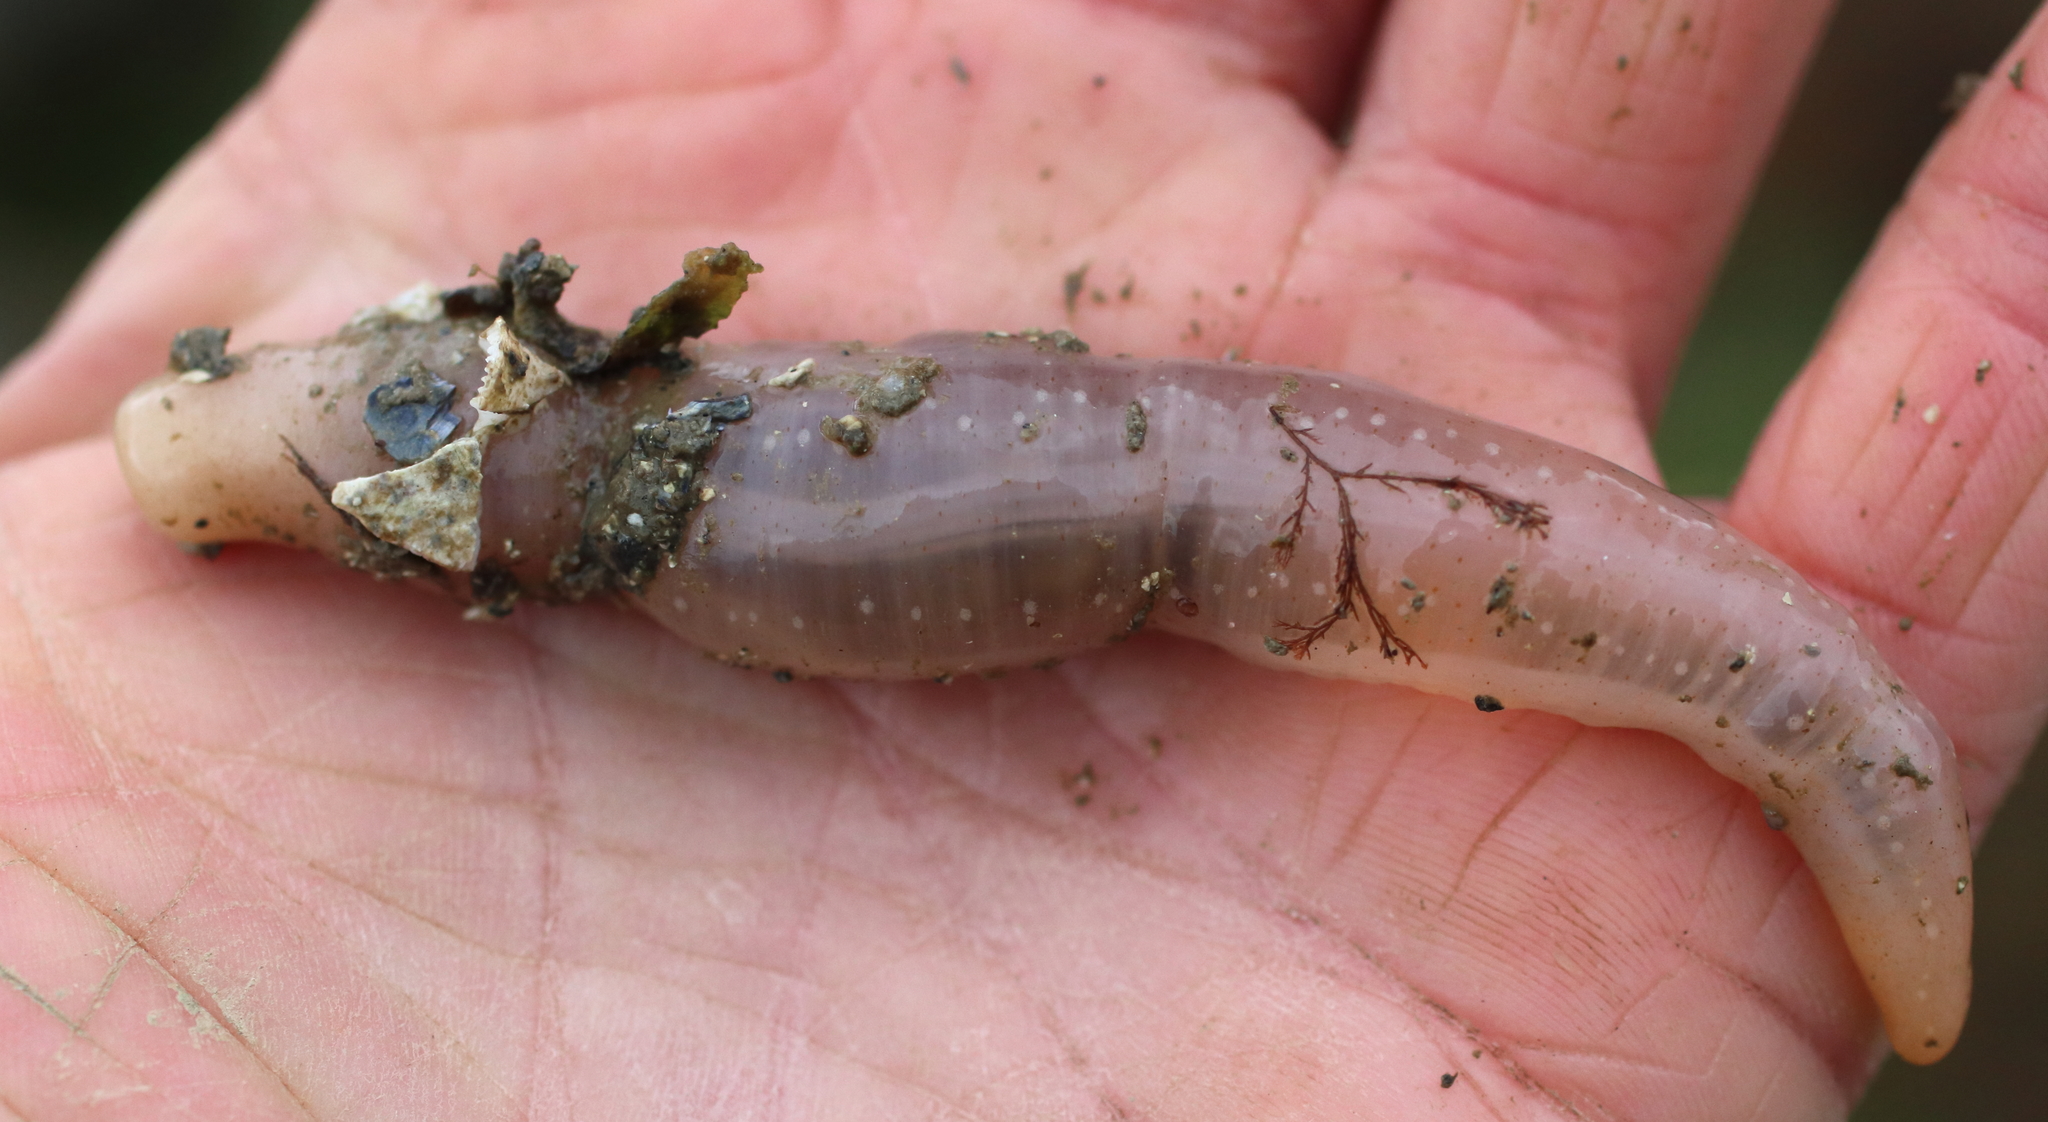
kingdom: Animalia
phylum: Echinodermata
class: Holothuroidea
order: Apodida
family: Chiridotidae
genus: Chiridota
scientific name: Chiridota discolor
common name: Jellybean footless sea cucumber
